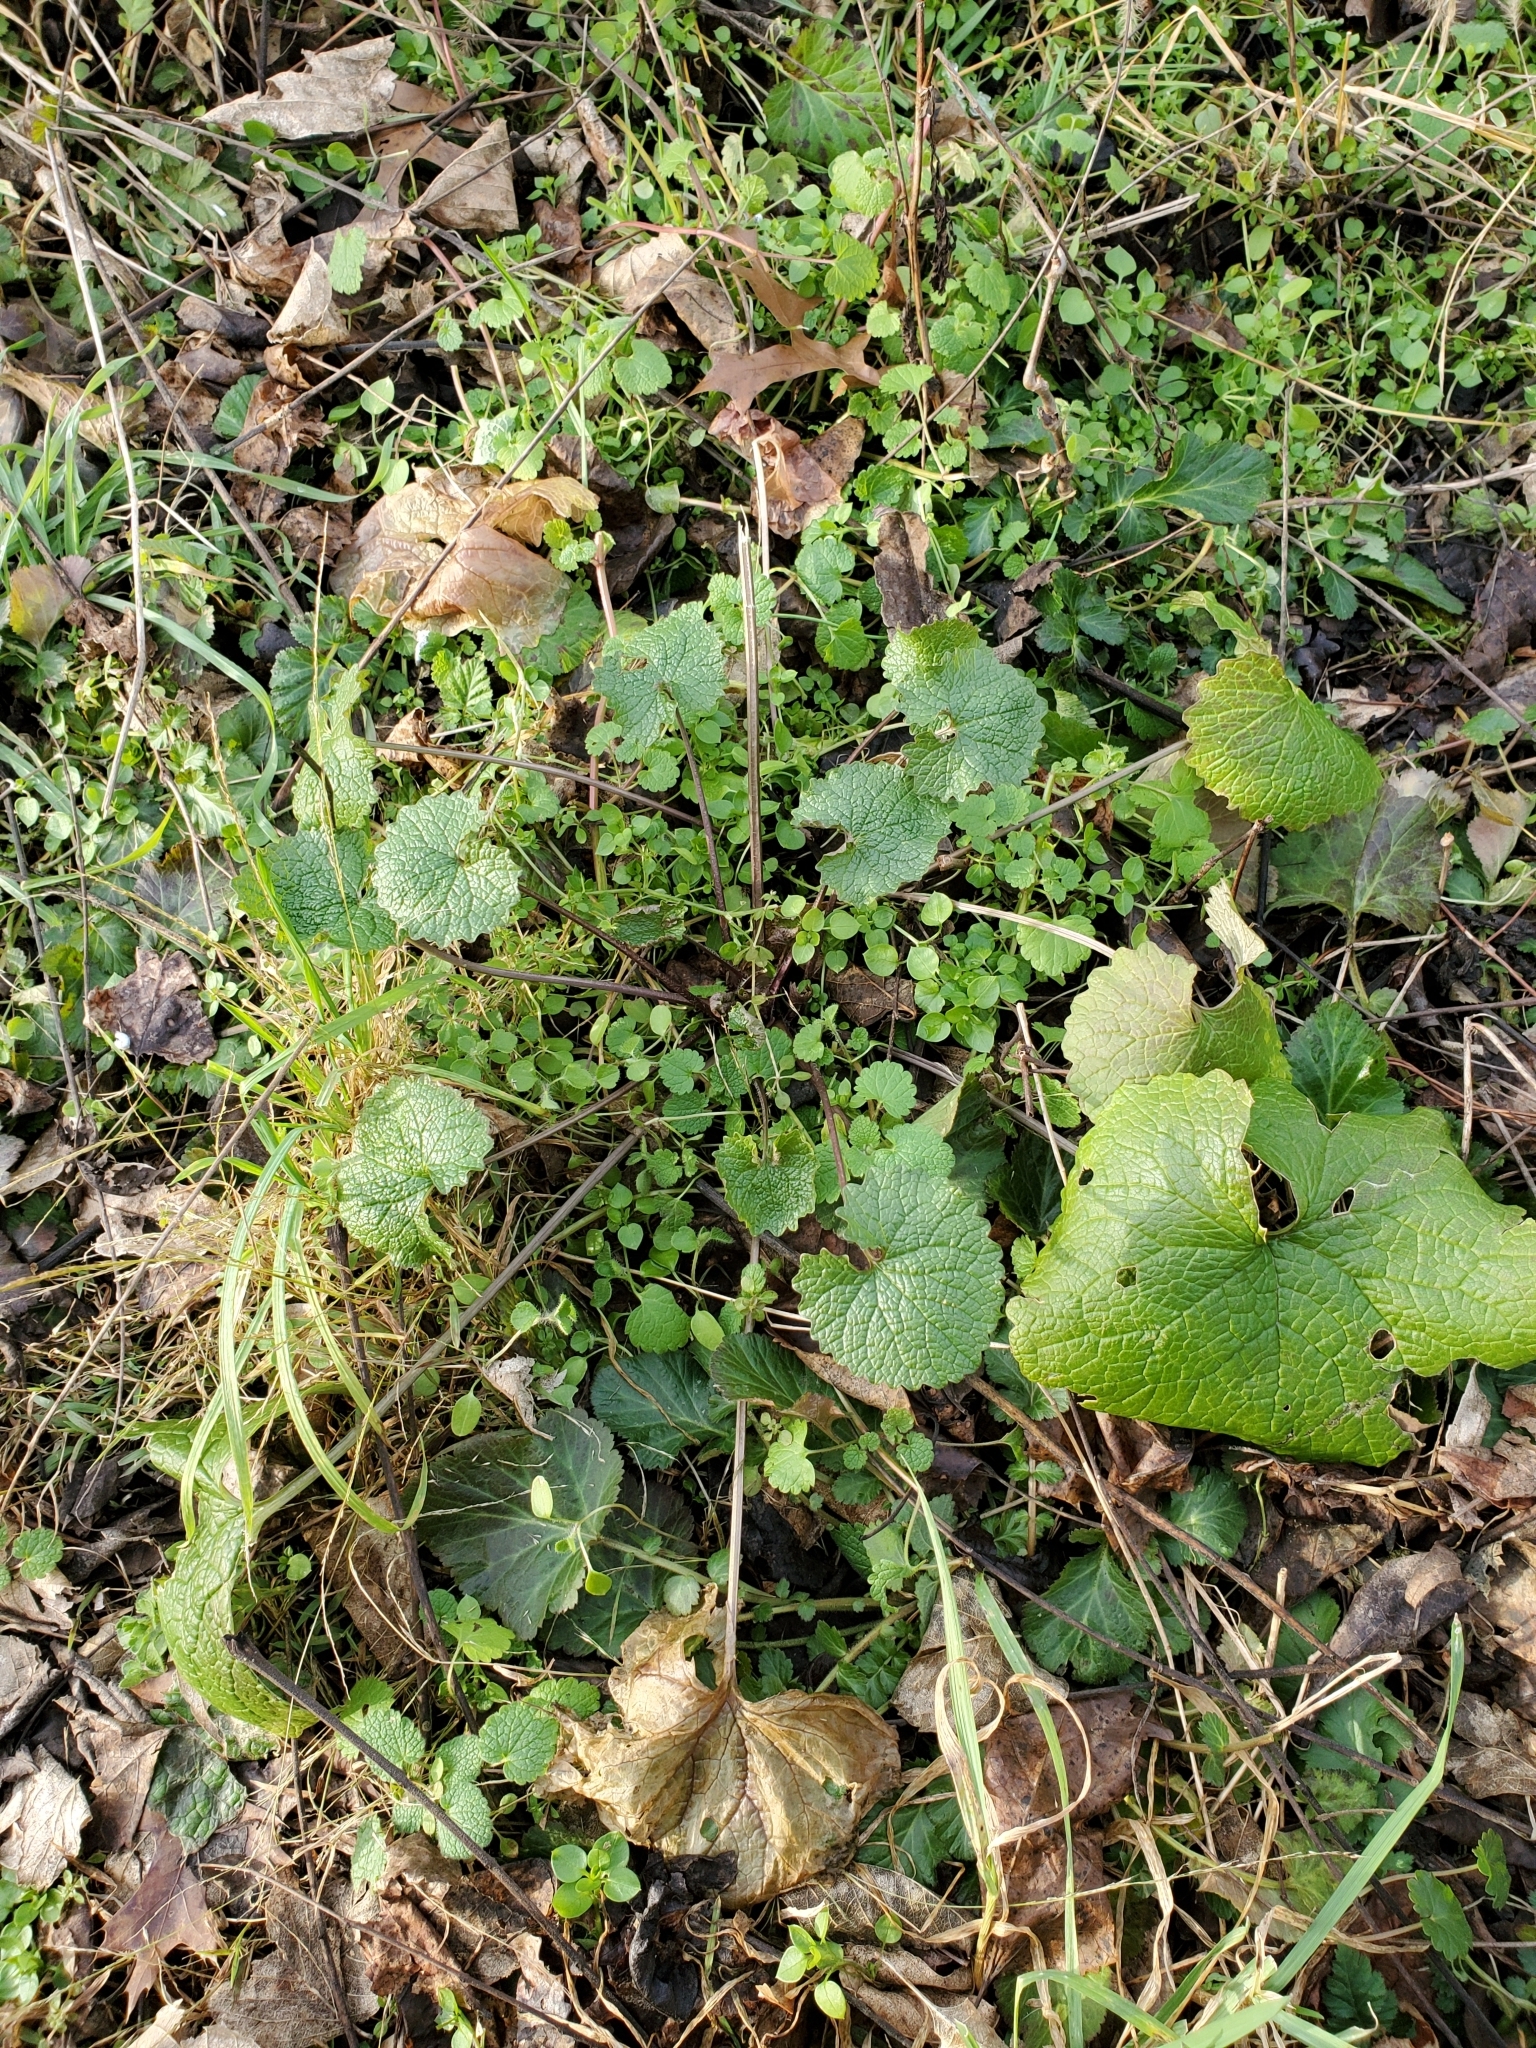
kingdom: Plantae
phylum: Tracheophyta
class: Magnoliopsida
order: Brassicales
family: Brassicaceae
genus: Alliaria
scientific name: Alliaria petiolata
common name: Garlic mustard
